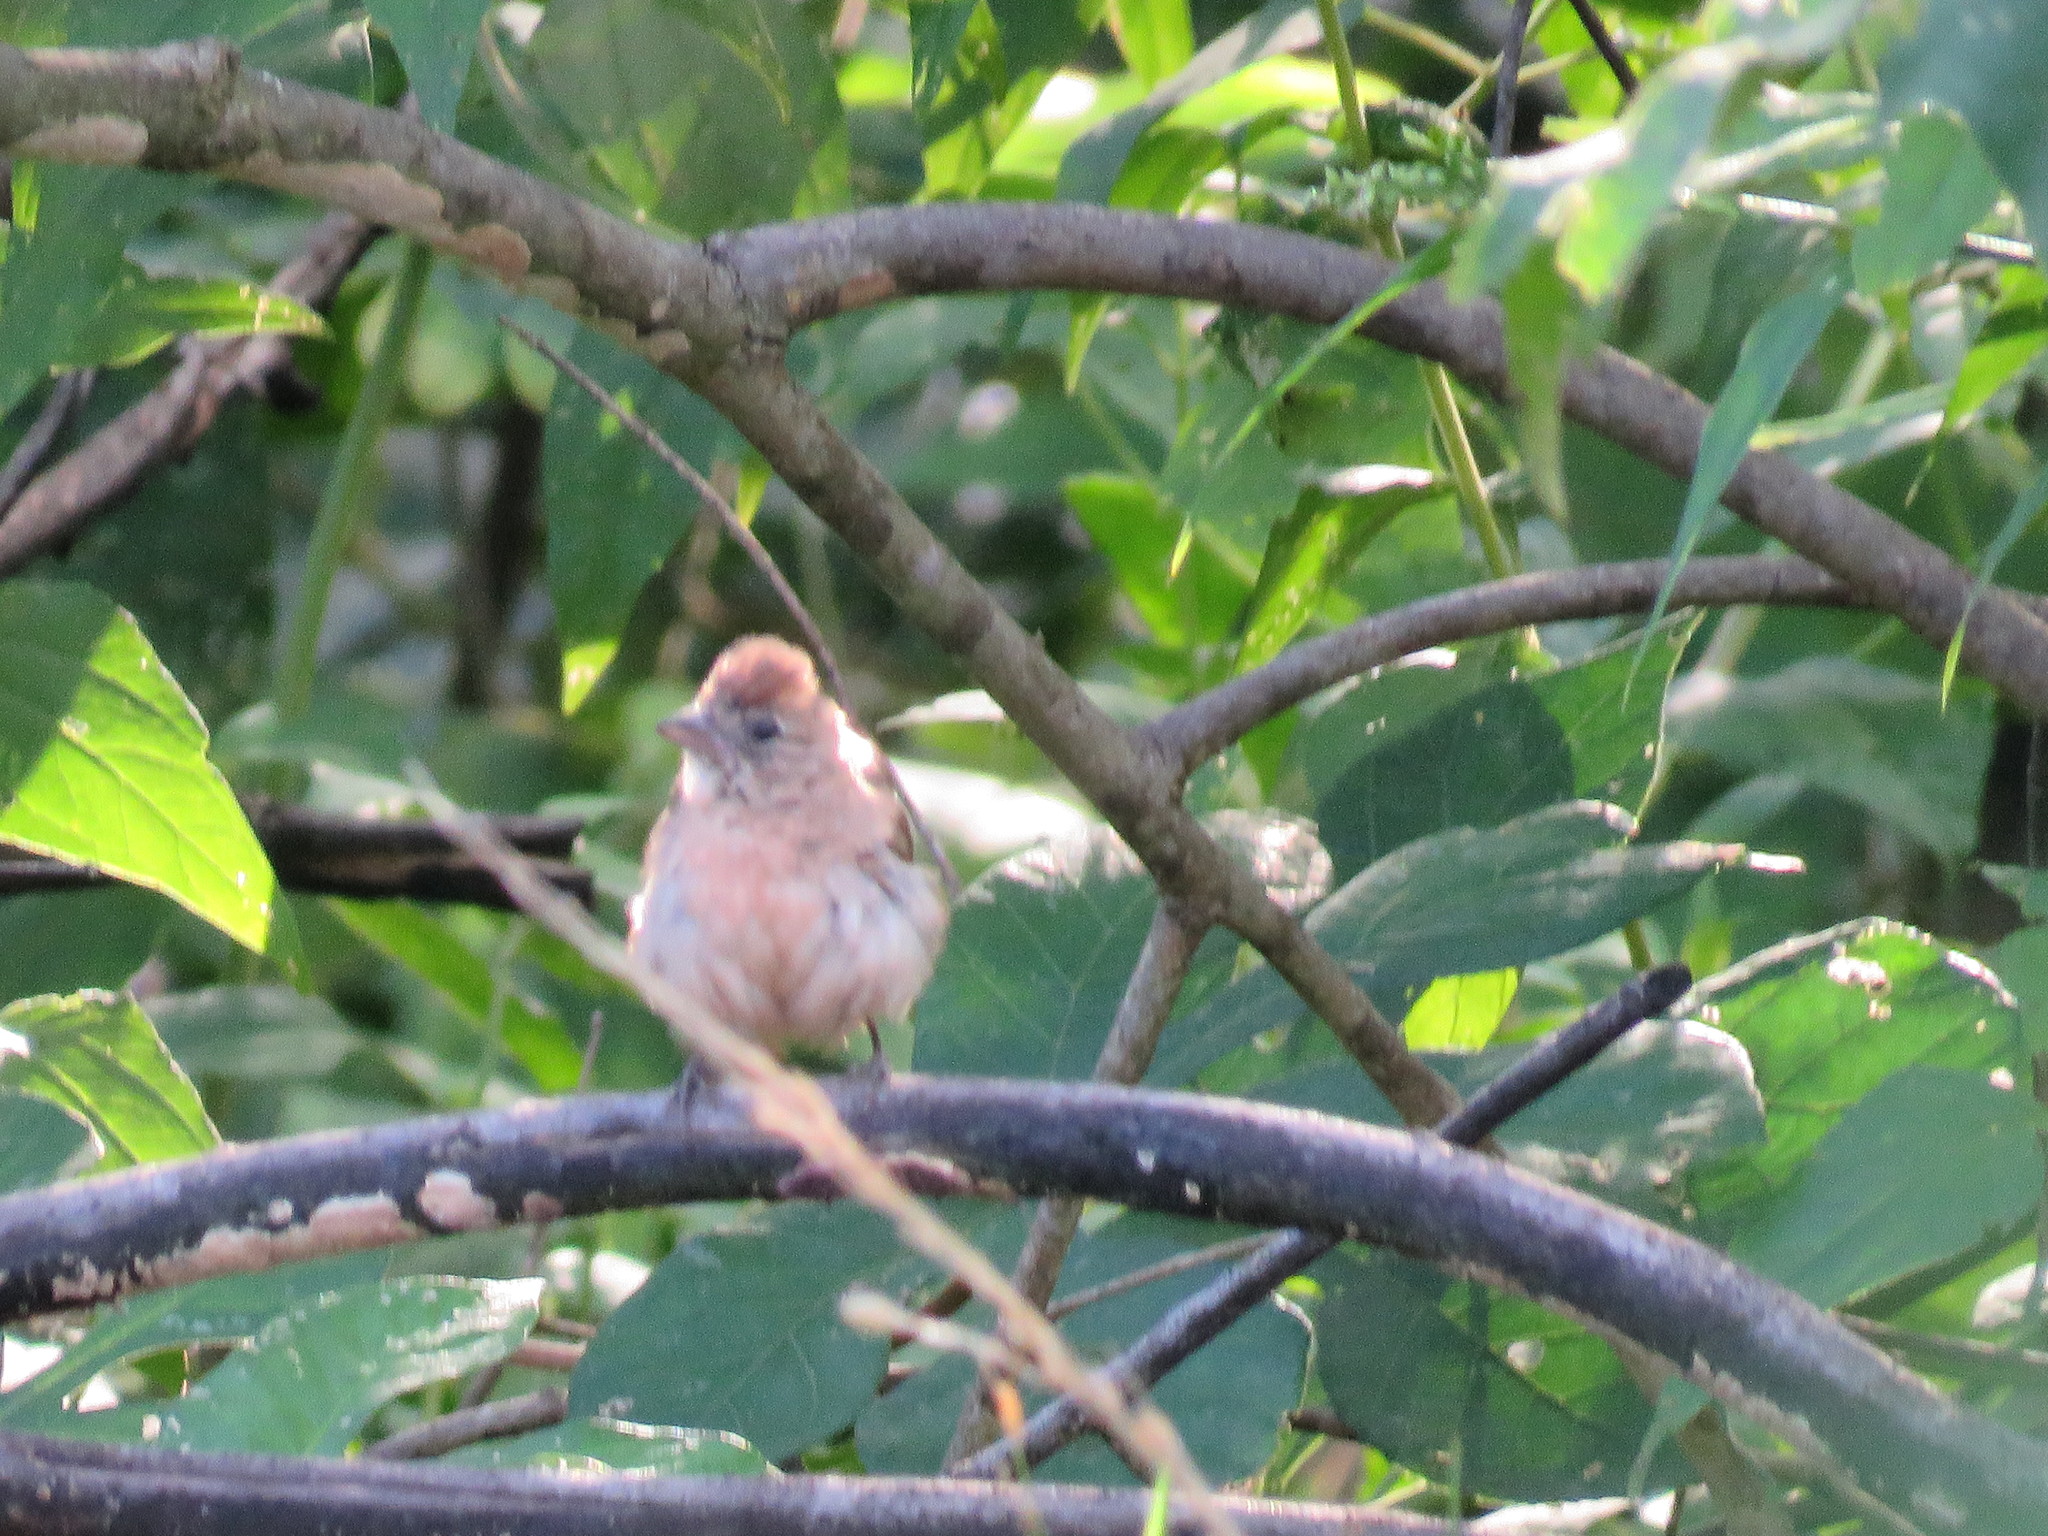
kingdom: Animalia
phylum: Chordata
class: Aves
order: Passeriformes
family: Thraupidae
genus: Coryphospingus
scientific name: Coryphospingus cucullatus
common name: Red pileated finch
